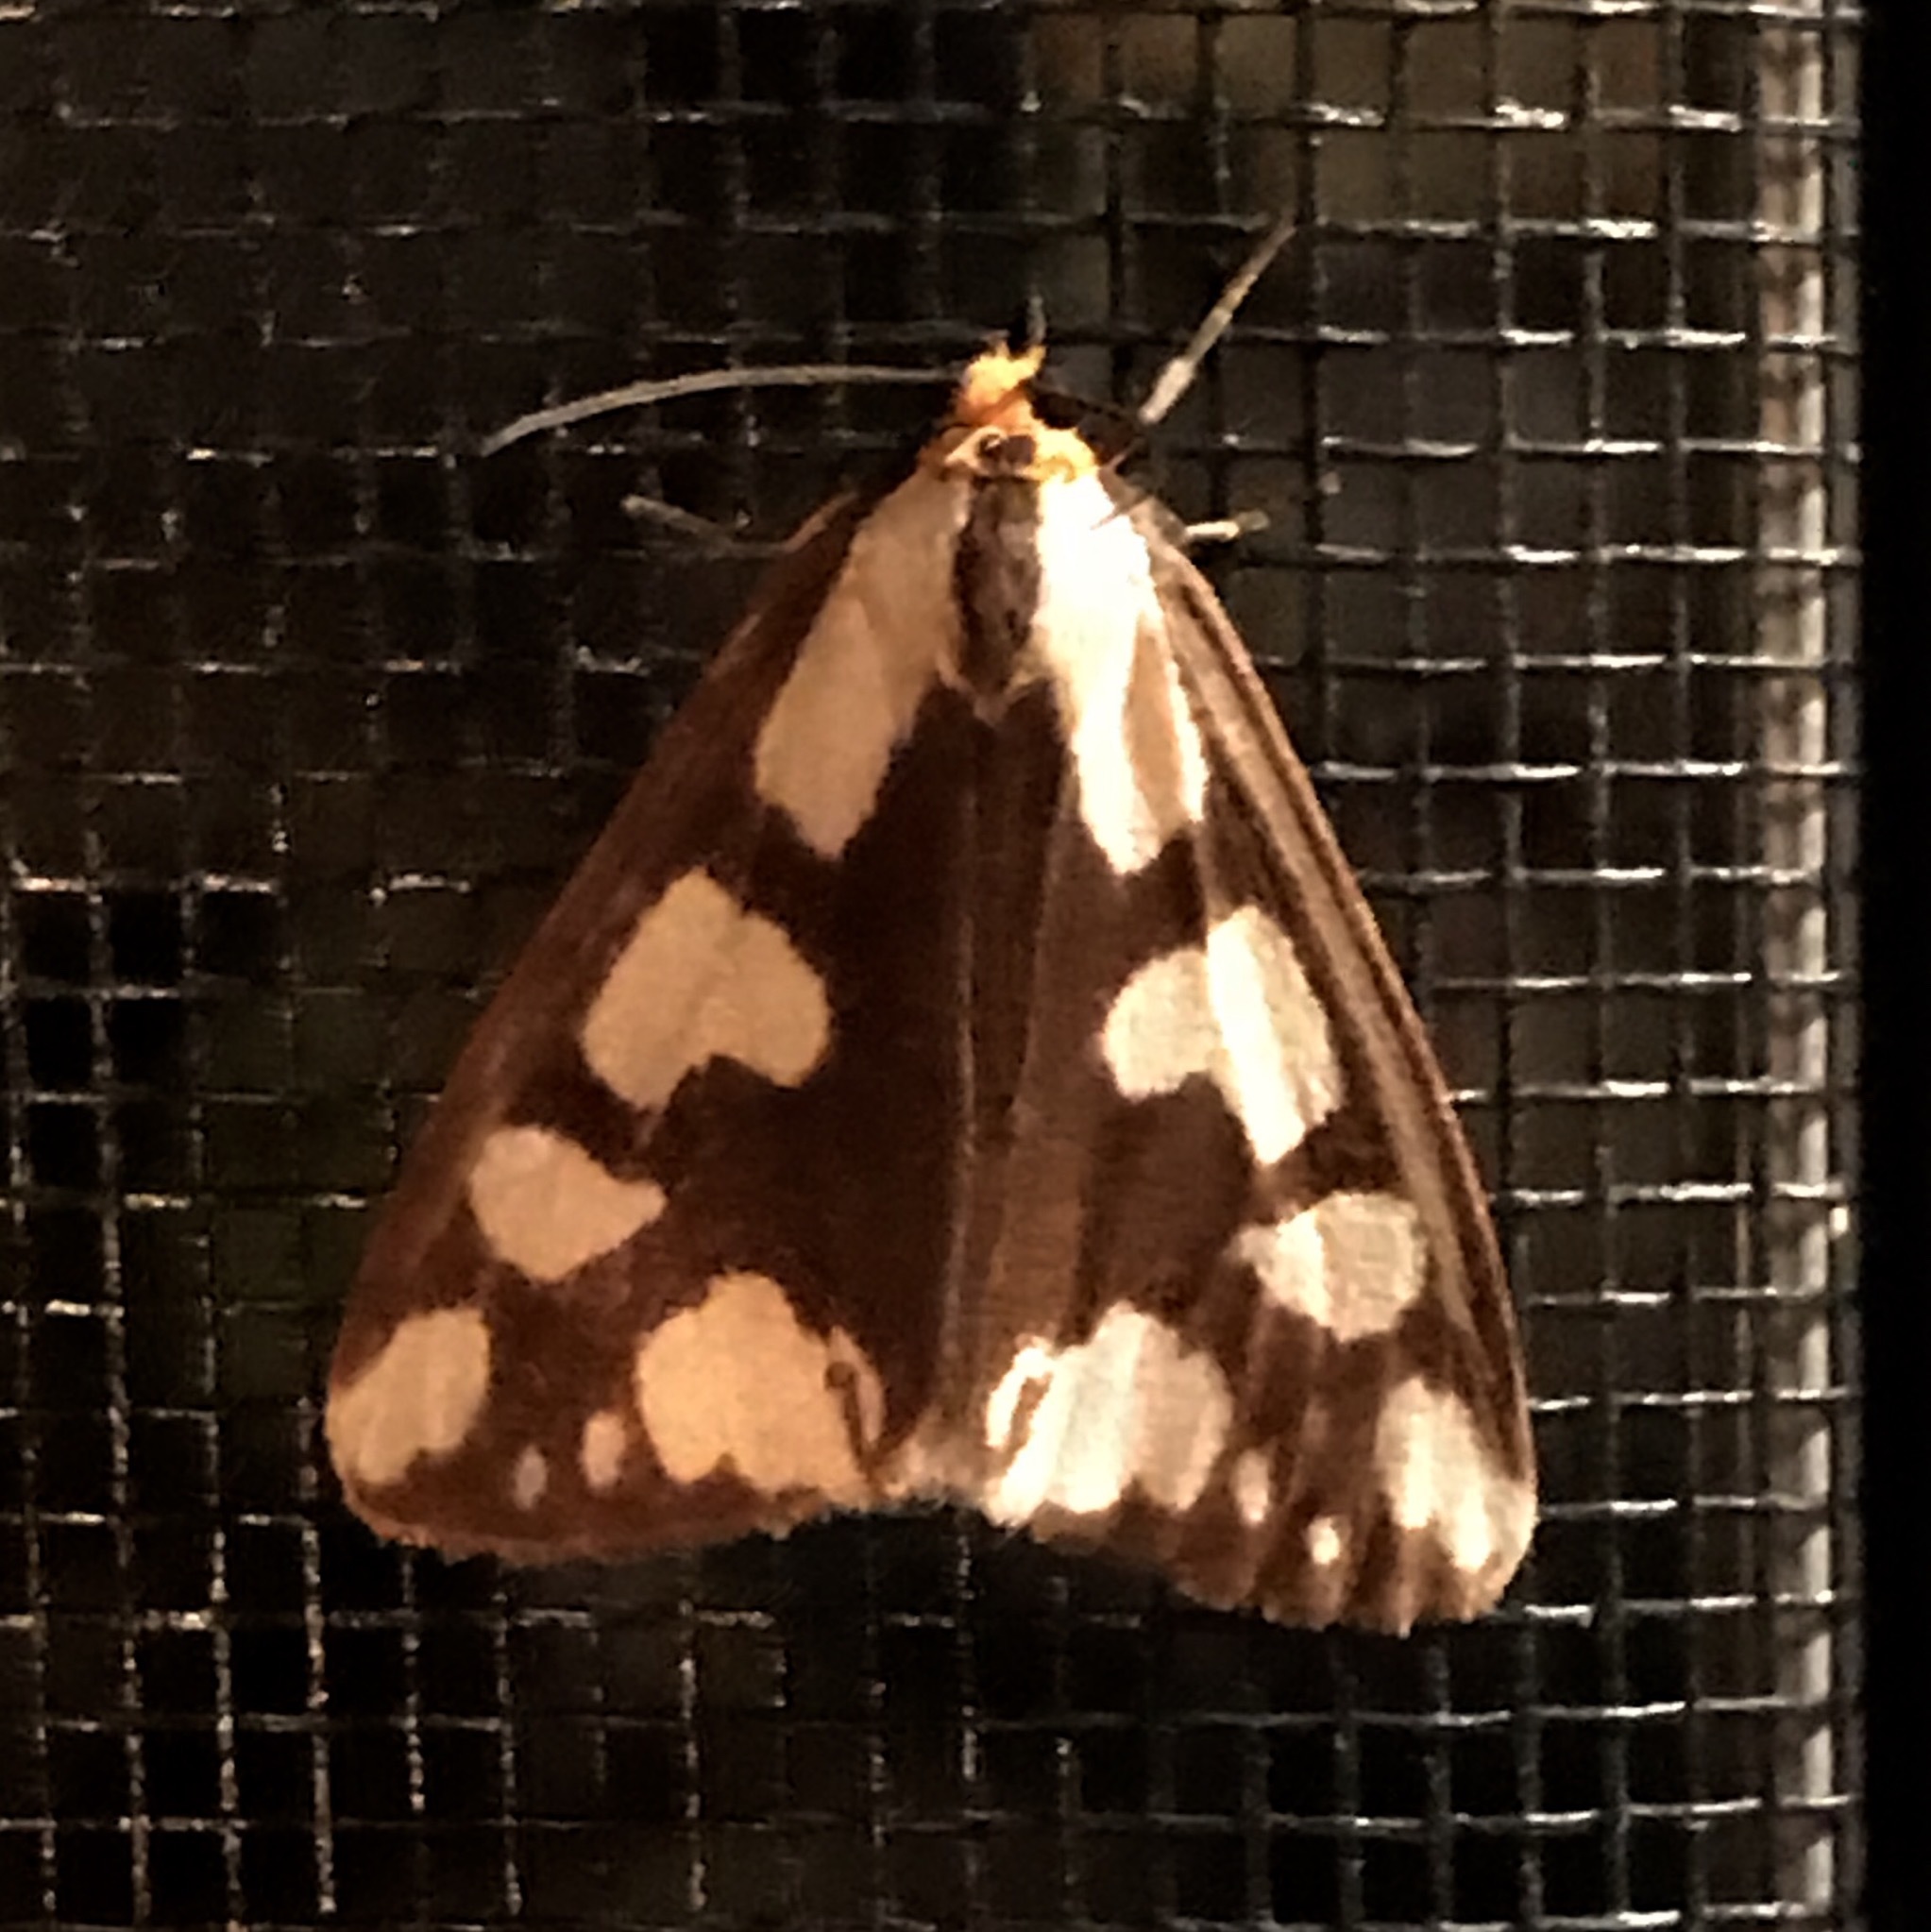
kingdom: Animalia
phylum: Arthropoda
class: Insecta
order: Lepidoptera
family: Erebidae
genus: Haploa
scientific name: Haploa confusa
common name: Confused haploa moth
